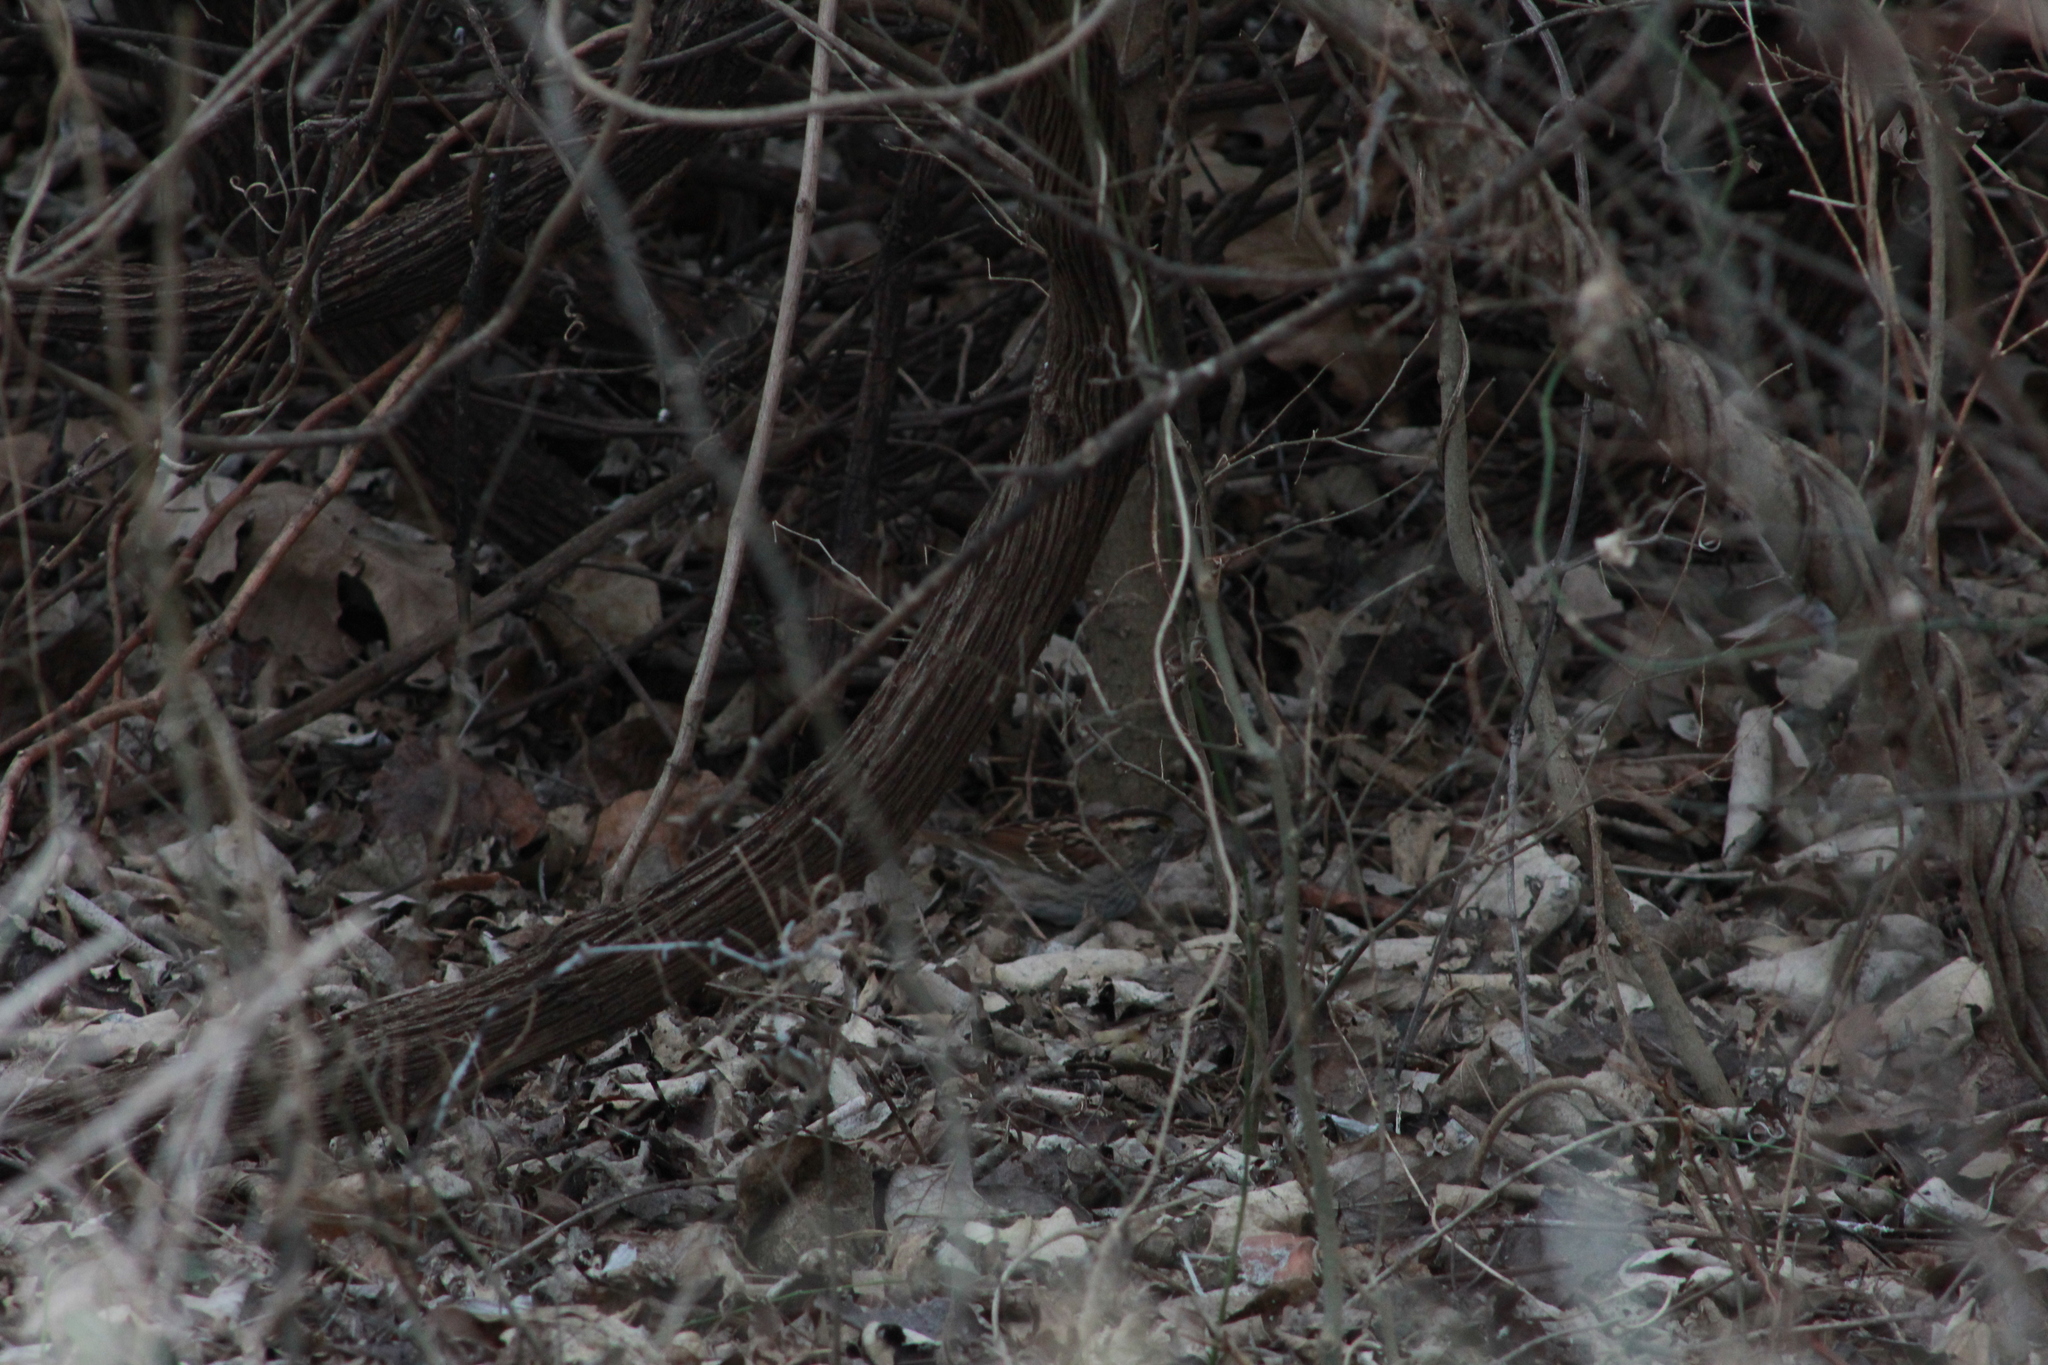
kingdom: Animalia
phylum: Chordata
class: Aves
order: Passeriformes
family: Passerellidae
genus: Zonotrichia
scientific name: Zonotrichia albicollis
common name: White-throated sparrow
